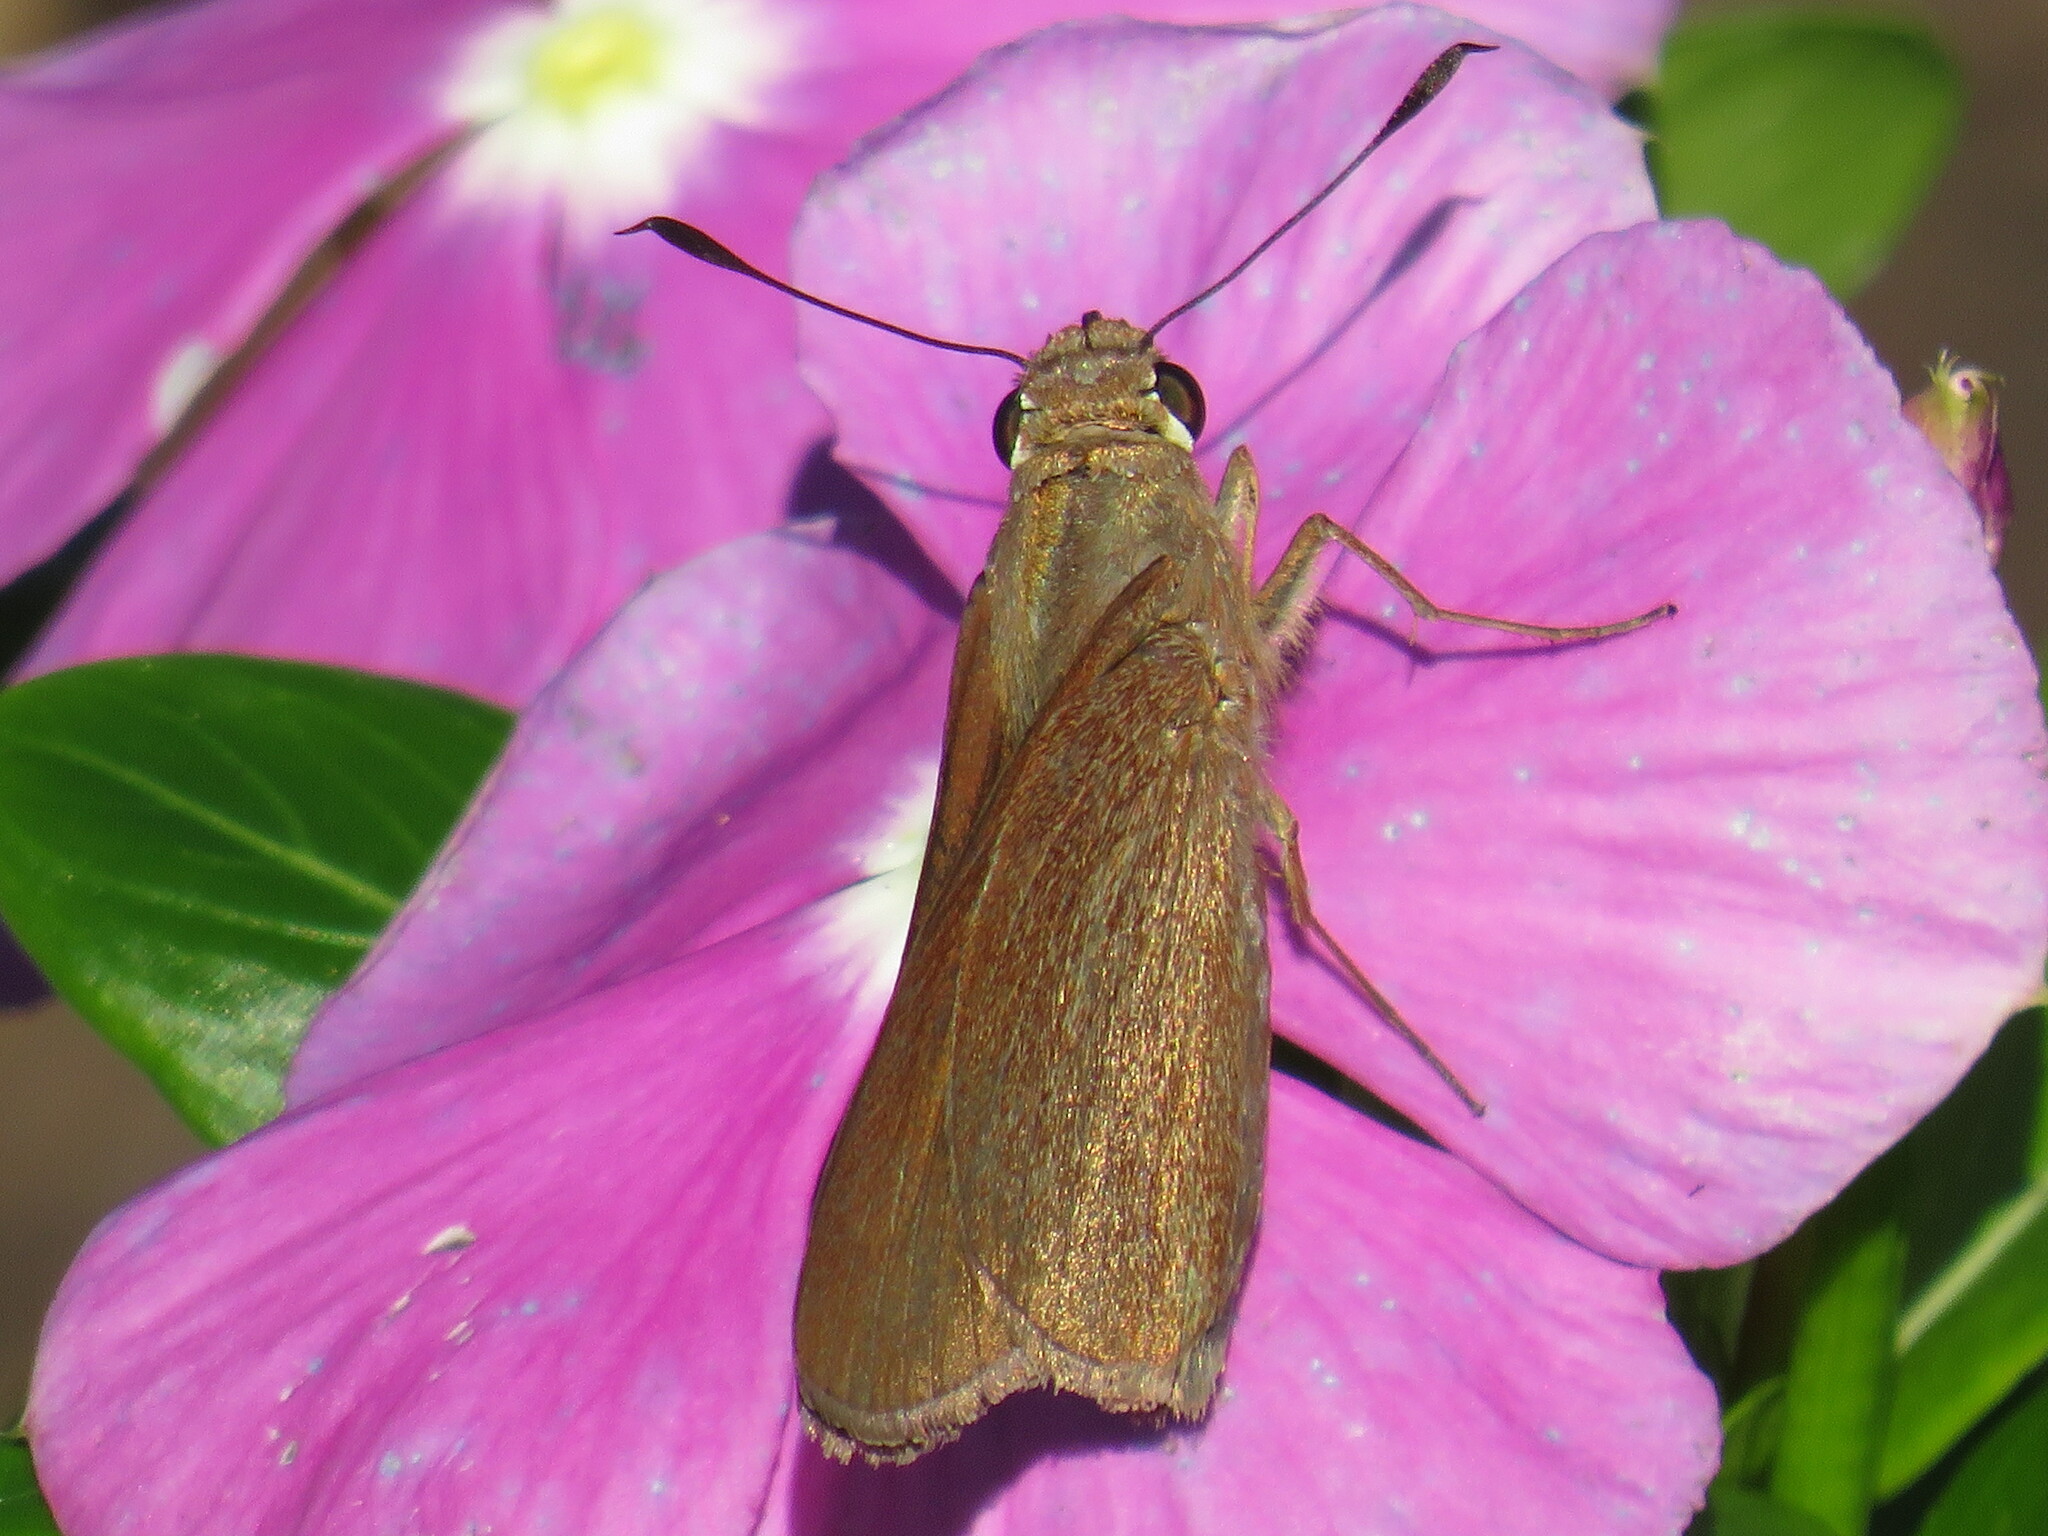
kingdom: Animalia
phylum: Arthropoda
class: Insecta
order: Lepidoptera
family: Hesperiidae
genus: Asbolis
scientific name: Asbolis capucinus
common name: Monk skipper
